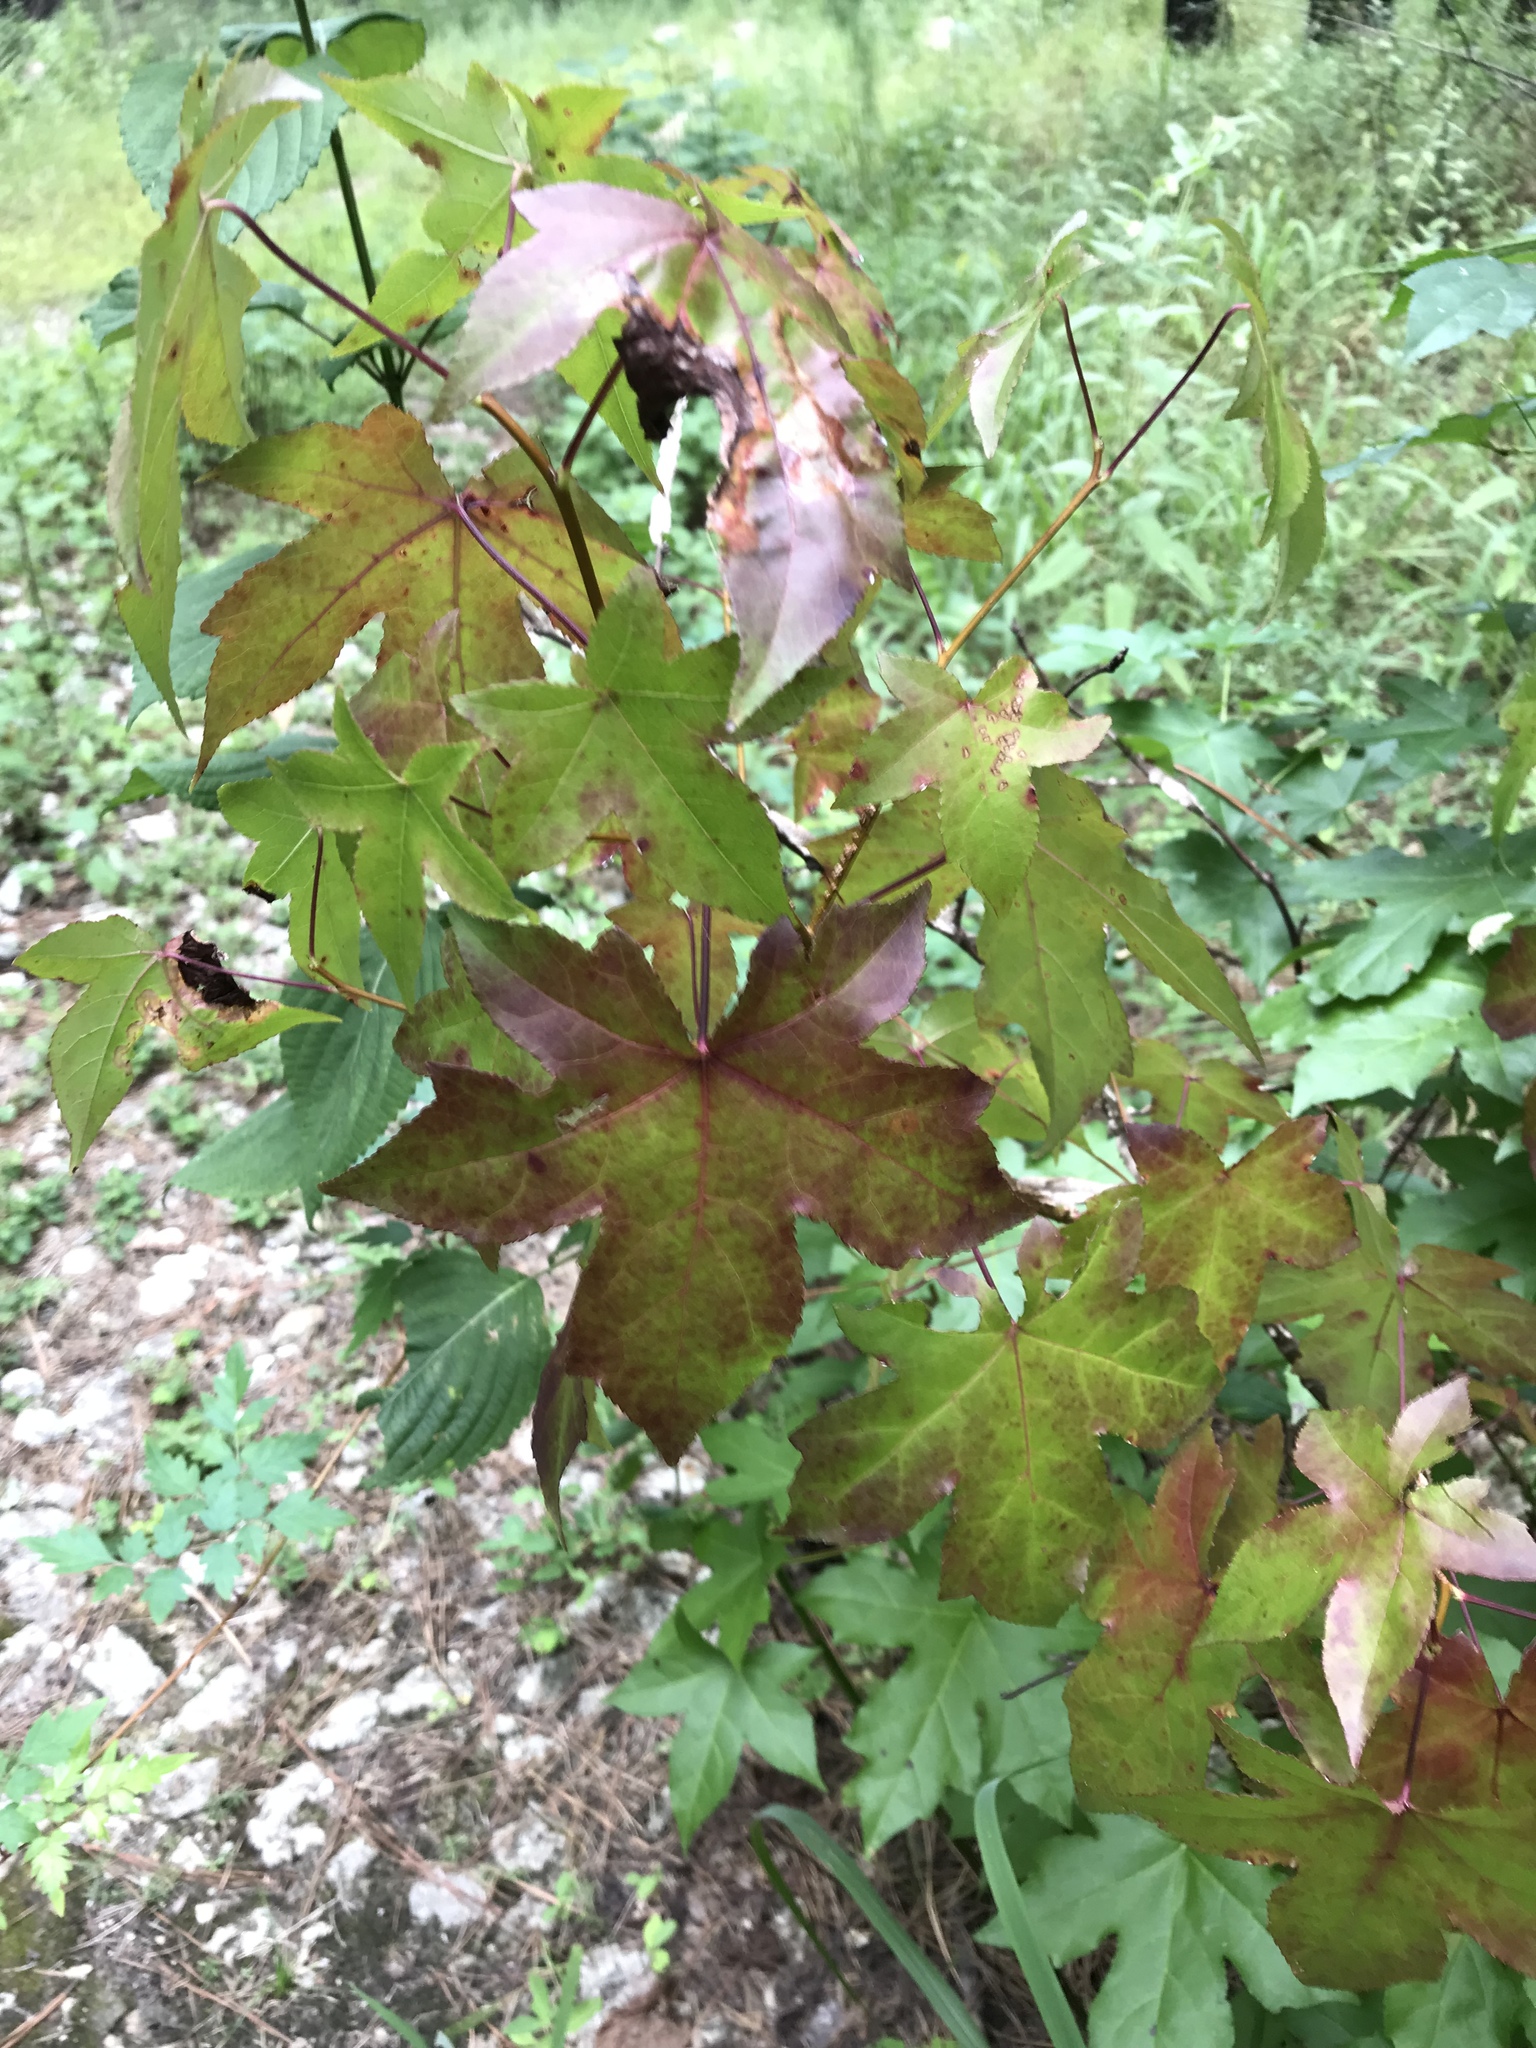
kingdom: Plantae
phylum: Tracheophyta
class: Magnoliopsida
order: Saxifragales
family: Altingiaceae
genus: Liquidambar
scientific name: Liquidambar styraciflua
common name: Sweet gum
